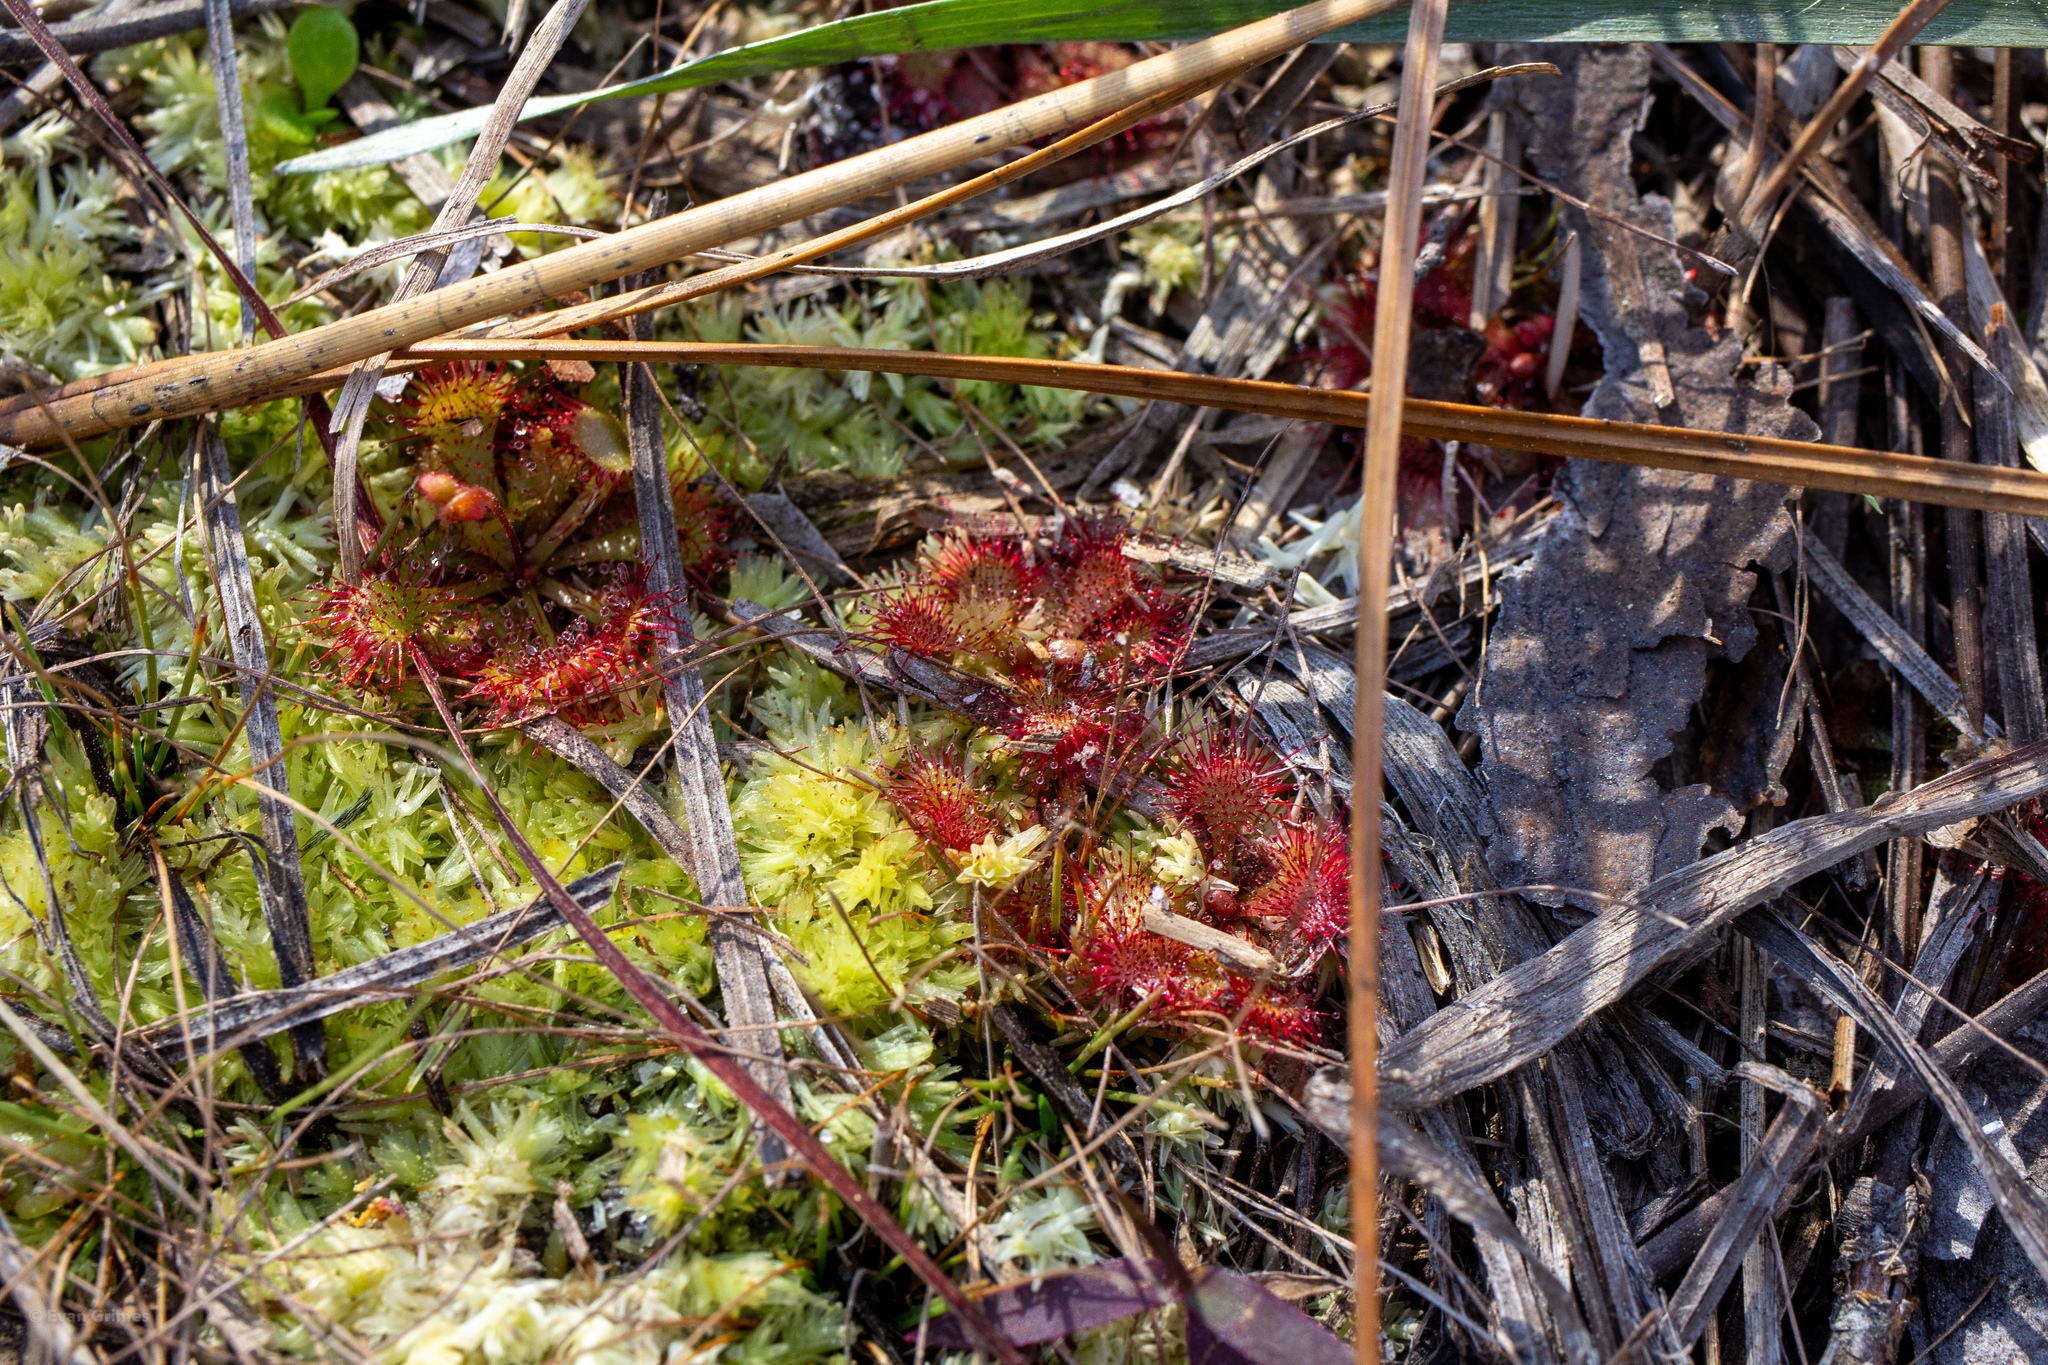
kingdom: Plantae
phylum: Tracheophyta
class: Magnoliopsida
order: Caryophyllales
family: Droseraceae
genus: Drosera
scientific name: Drosera brevifolia
